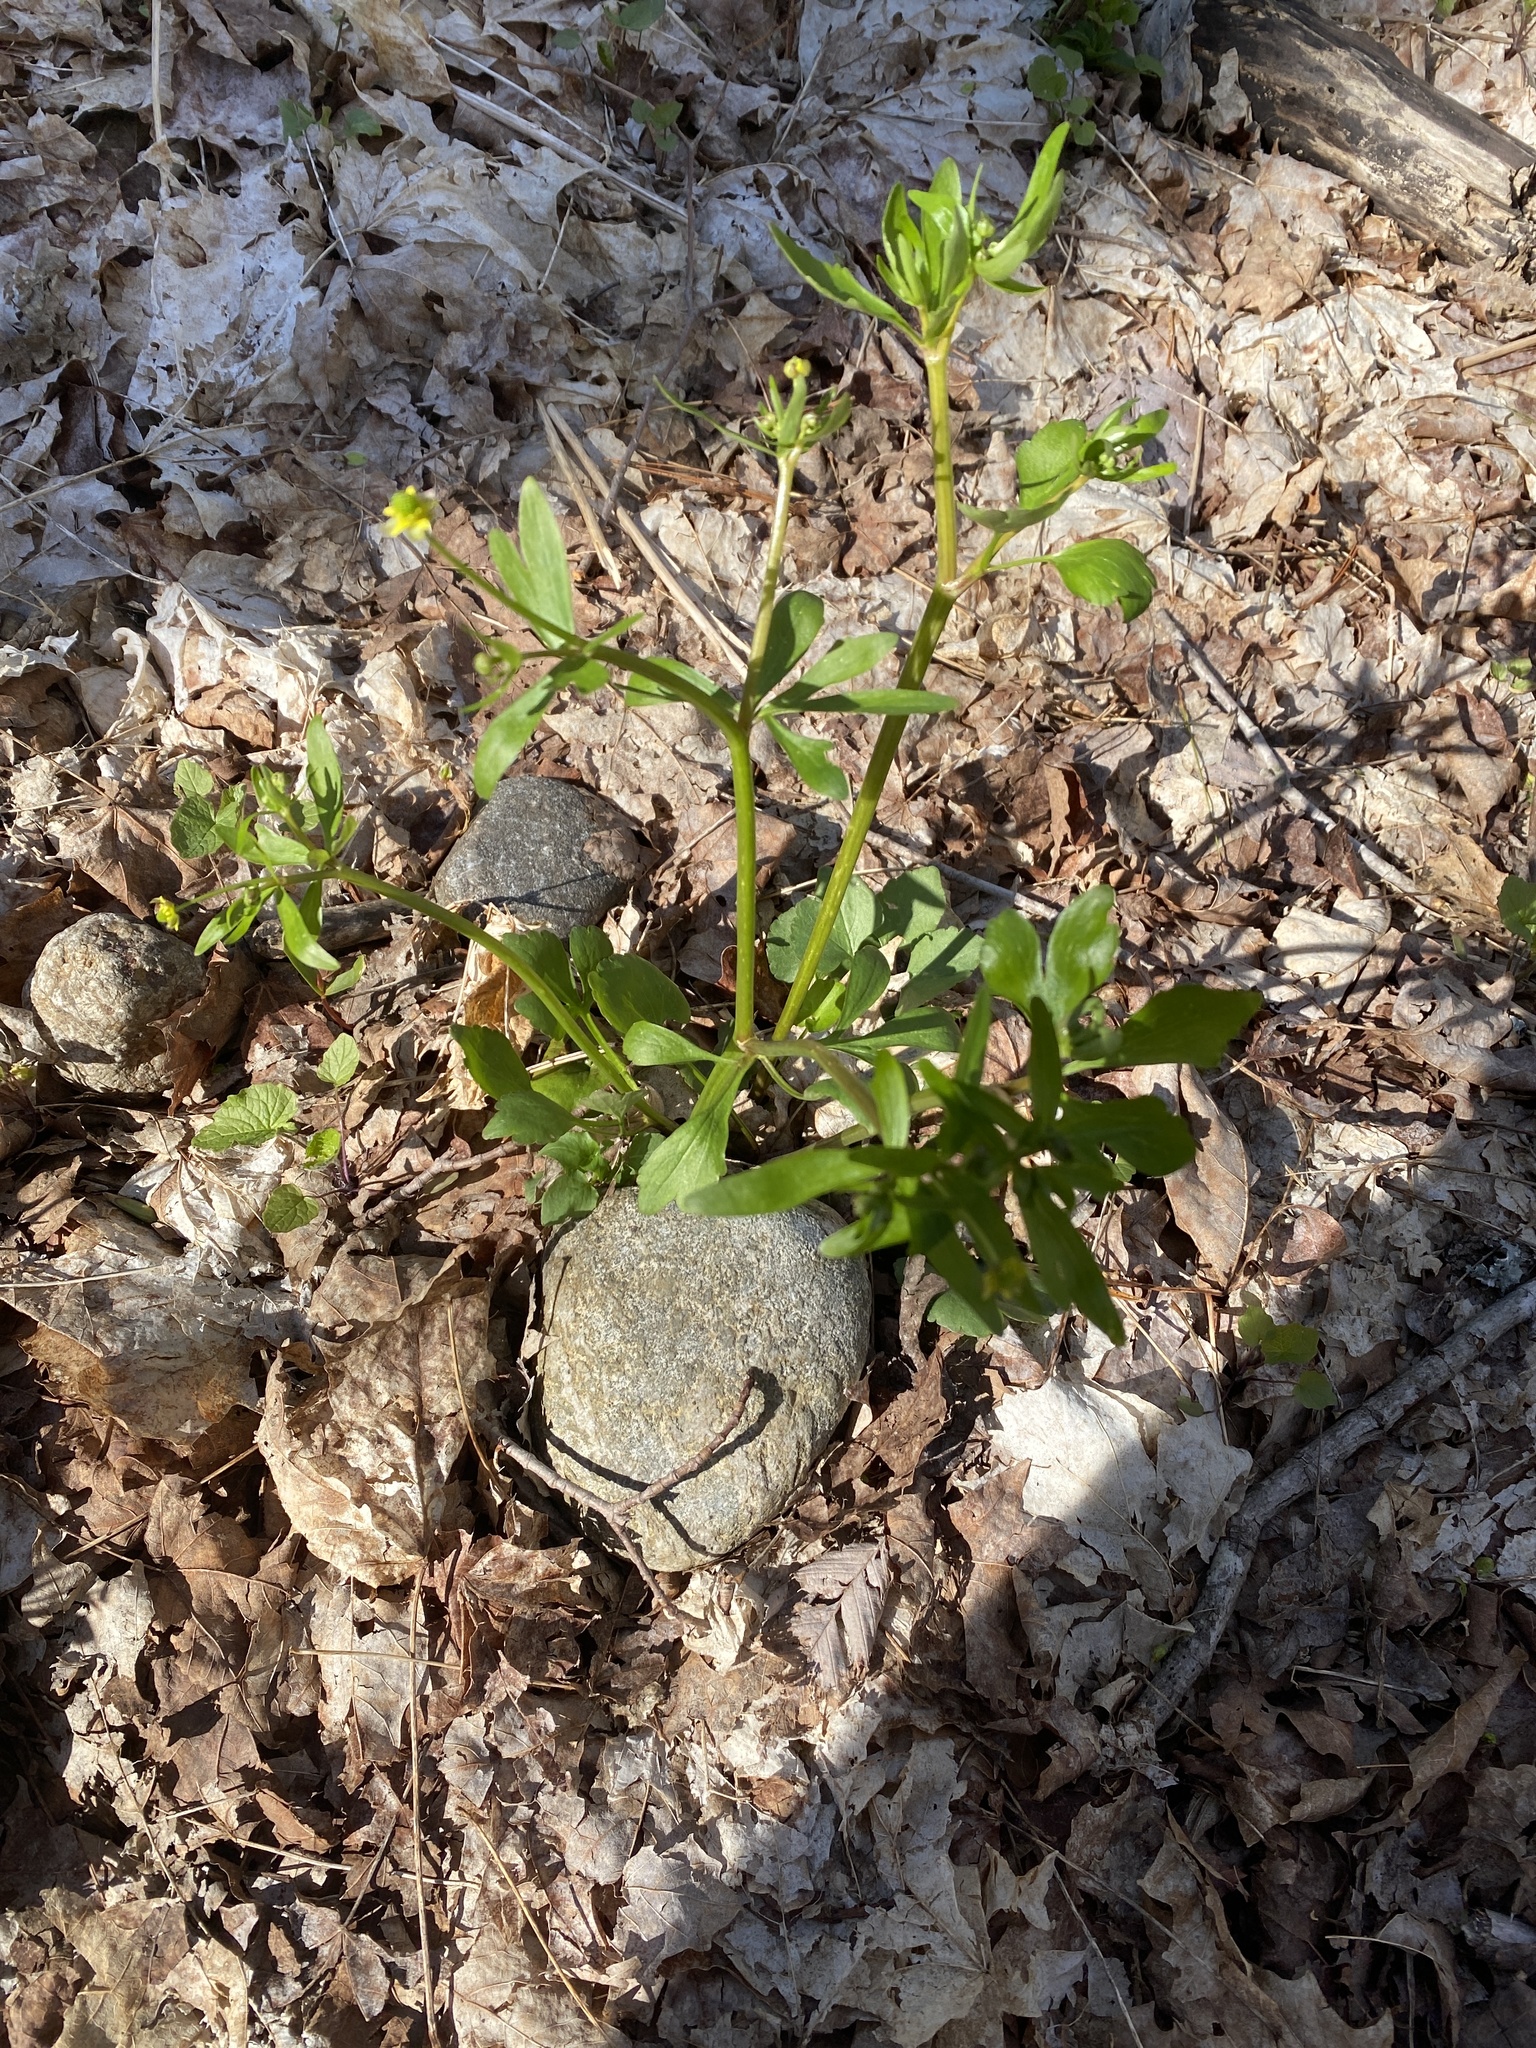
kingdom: Plantae
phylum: Tracheophyta
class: Magnoliopsida
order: Ranunculales
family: Ranunculaceae
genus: Ranunculus
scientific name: Ranunculus abortivus
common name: Early wood buttercup
